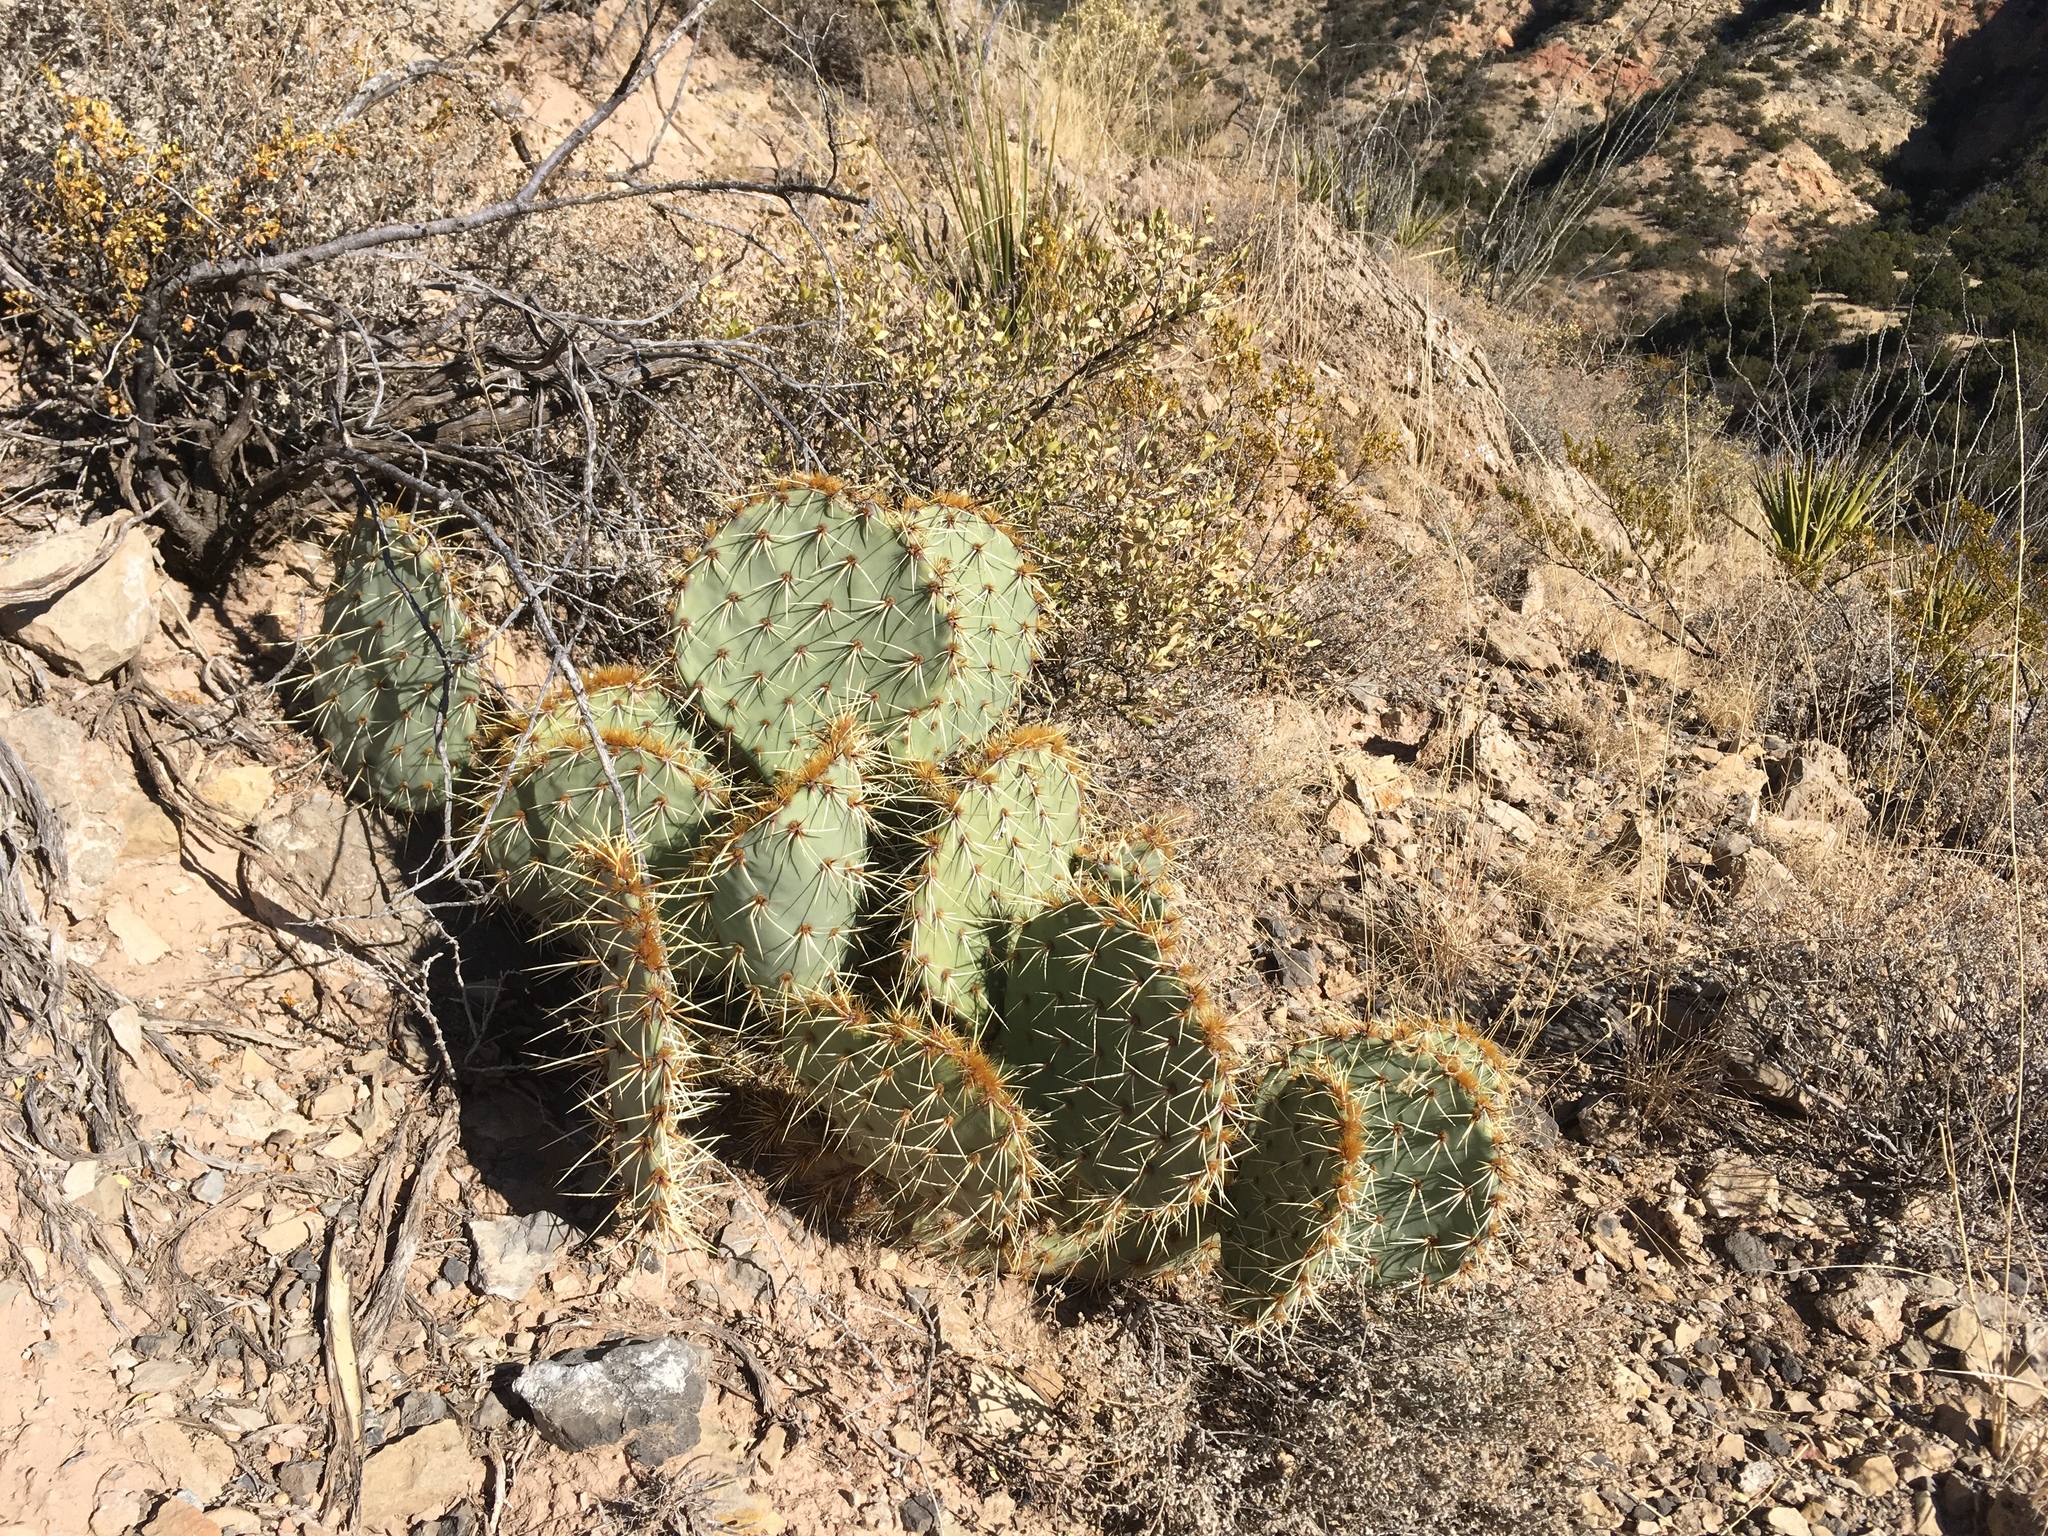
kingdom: Plantae
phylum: Tracheophyta
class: Magnoliopsida
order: Caryophyllales
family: Cactaceae
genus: Opuntia
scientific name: Opuntia engelmannii
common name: Cactus-apple
